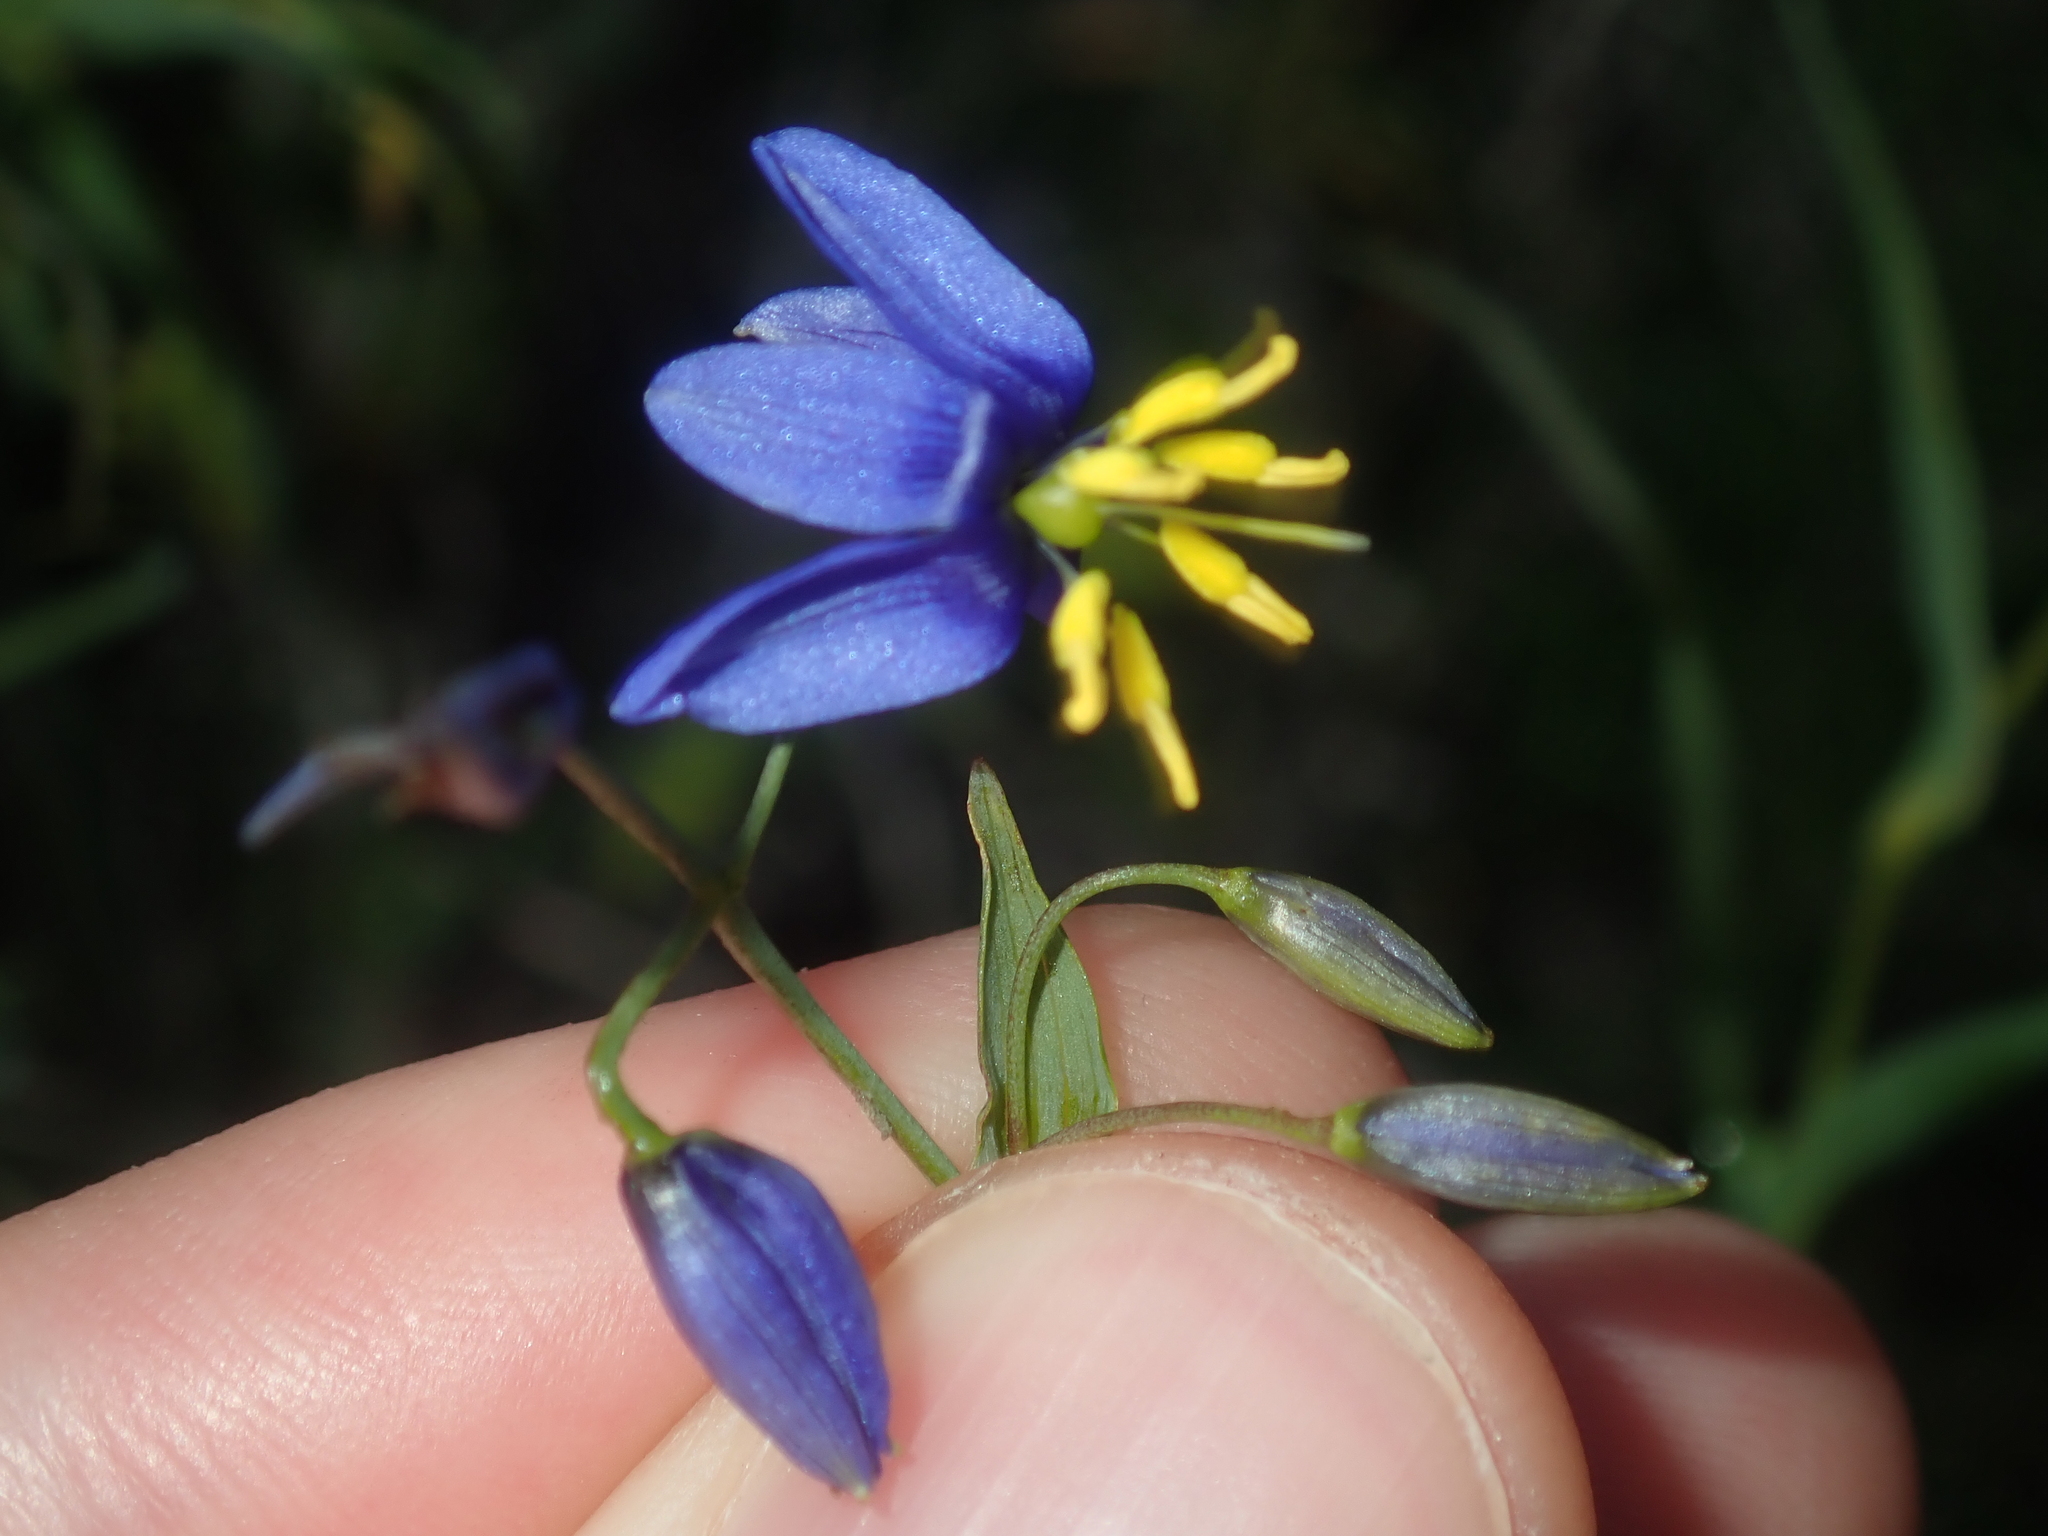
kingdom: Plantae
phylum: Tracheophyta
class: Liliopsida
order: Asparagales
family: Asphodelaceae
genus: Stypandra
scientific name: Stypandra glauca
